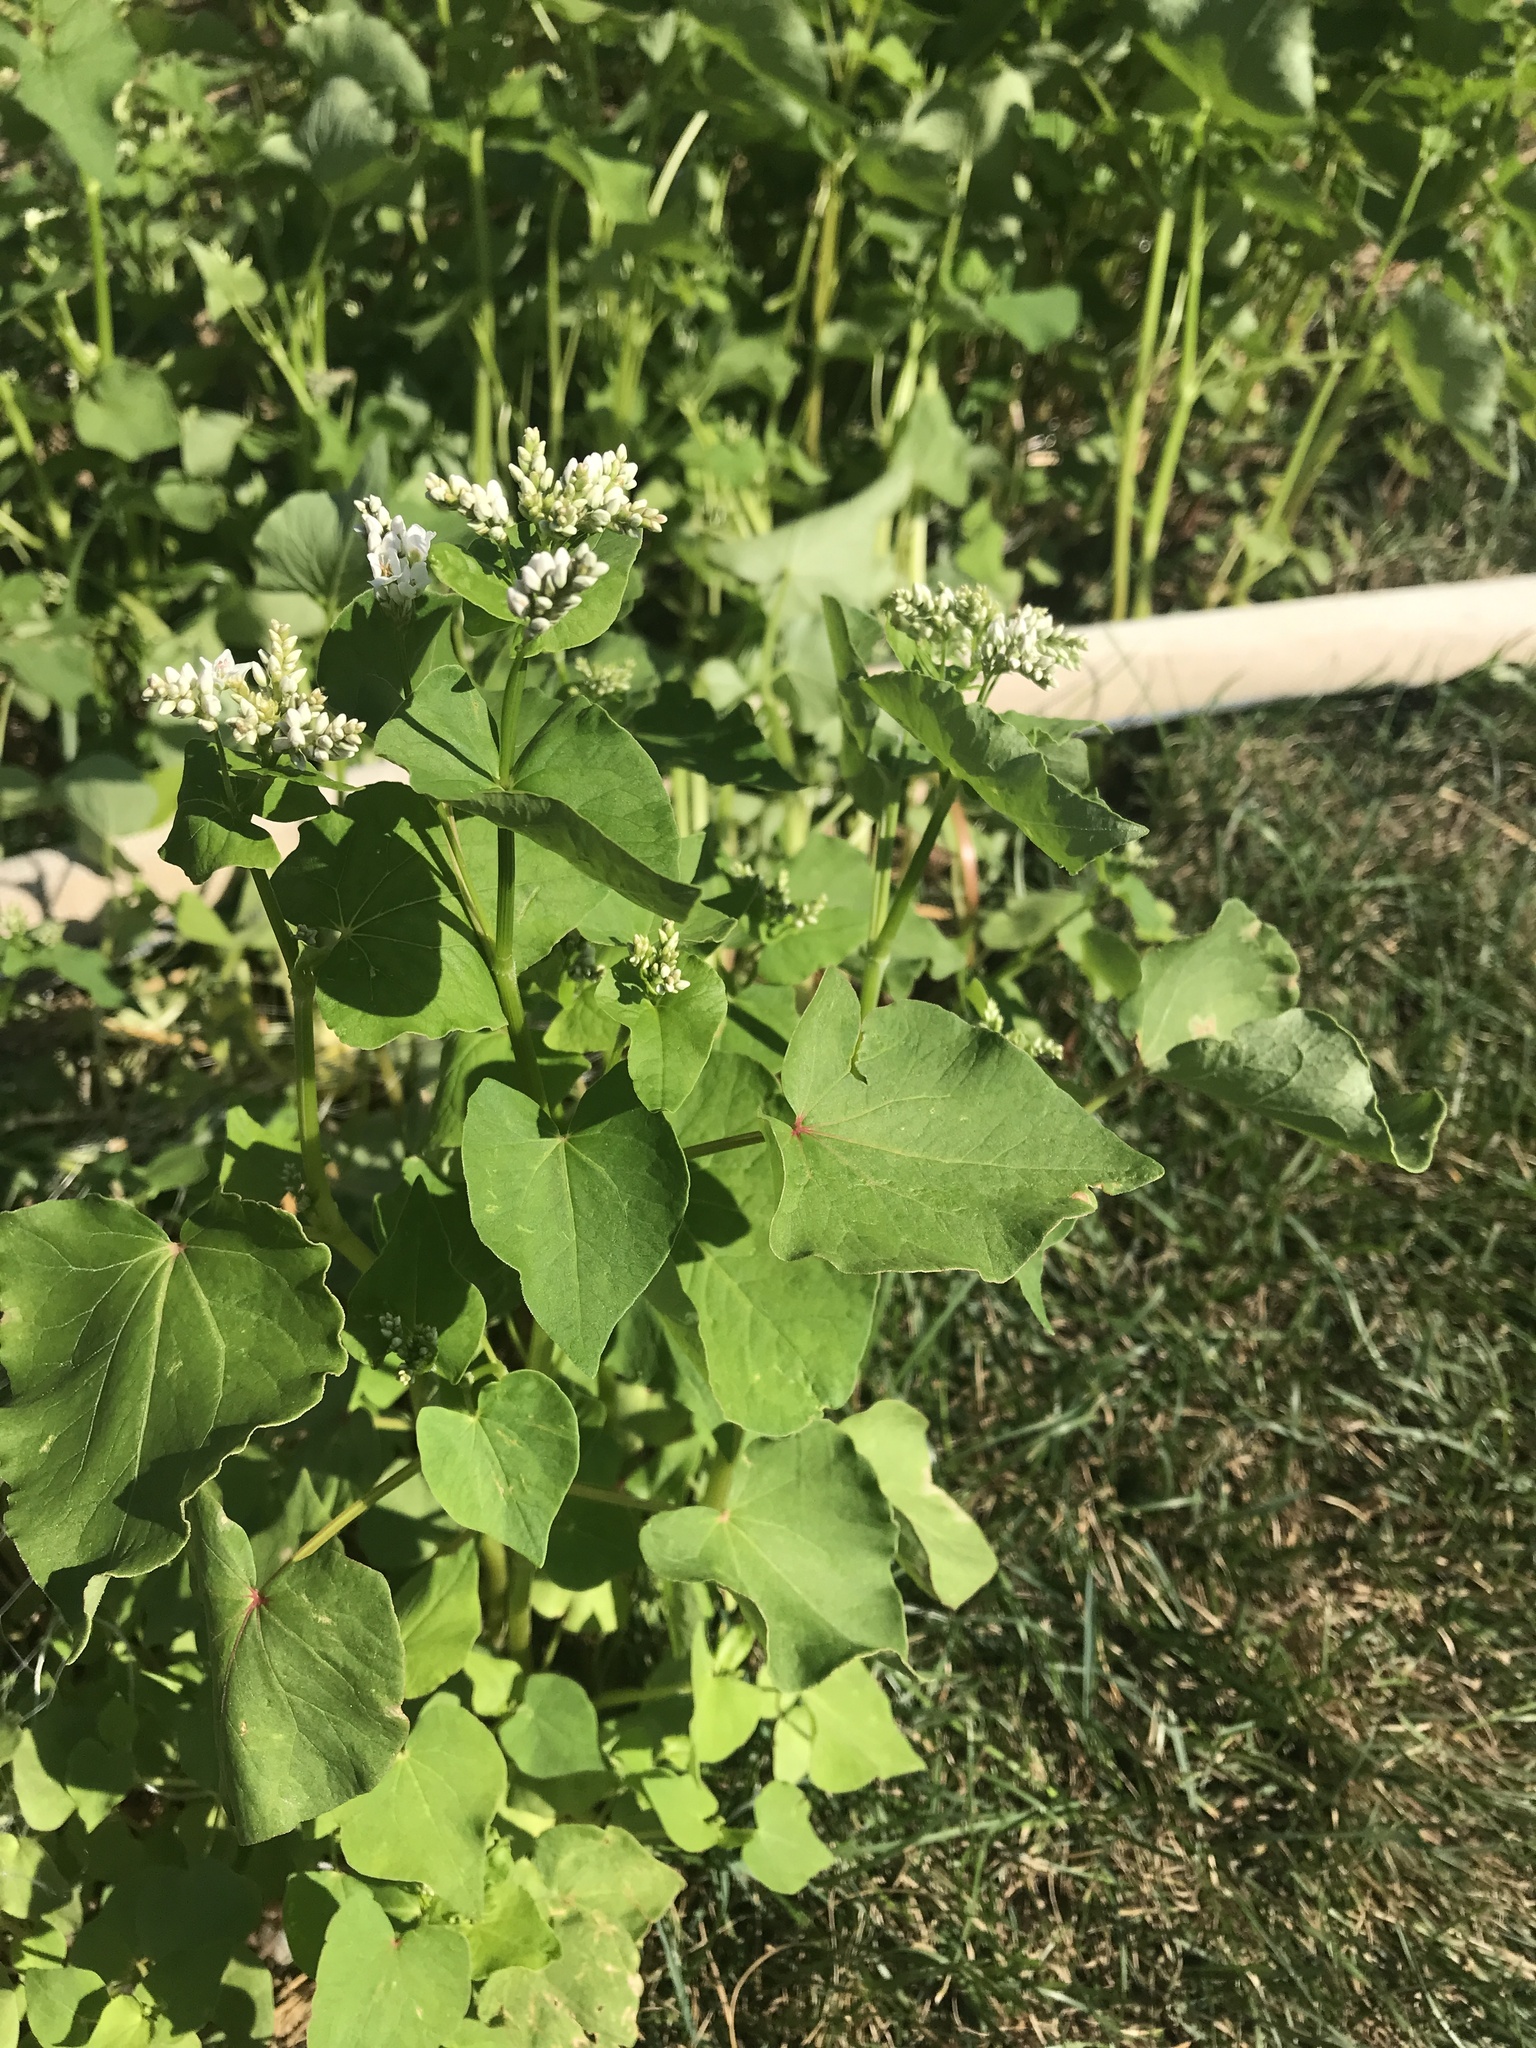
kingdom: Plantae
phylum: Tracheophyta
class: Magnoliopsida
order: Caryophyllales
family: Polygonaceae
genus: Fagopyrum
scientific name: Fagopyrum esculentum
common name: Buckwheat
